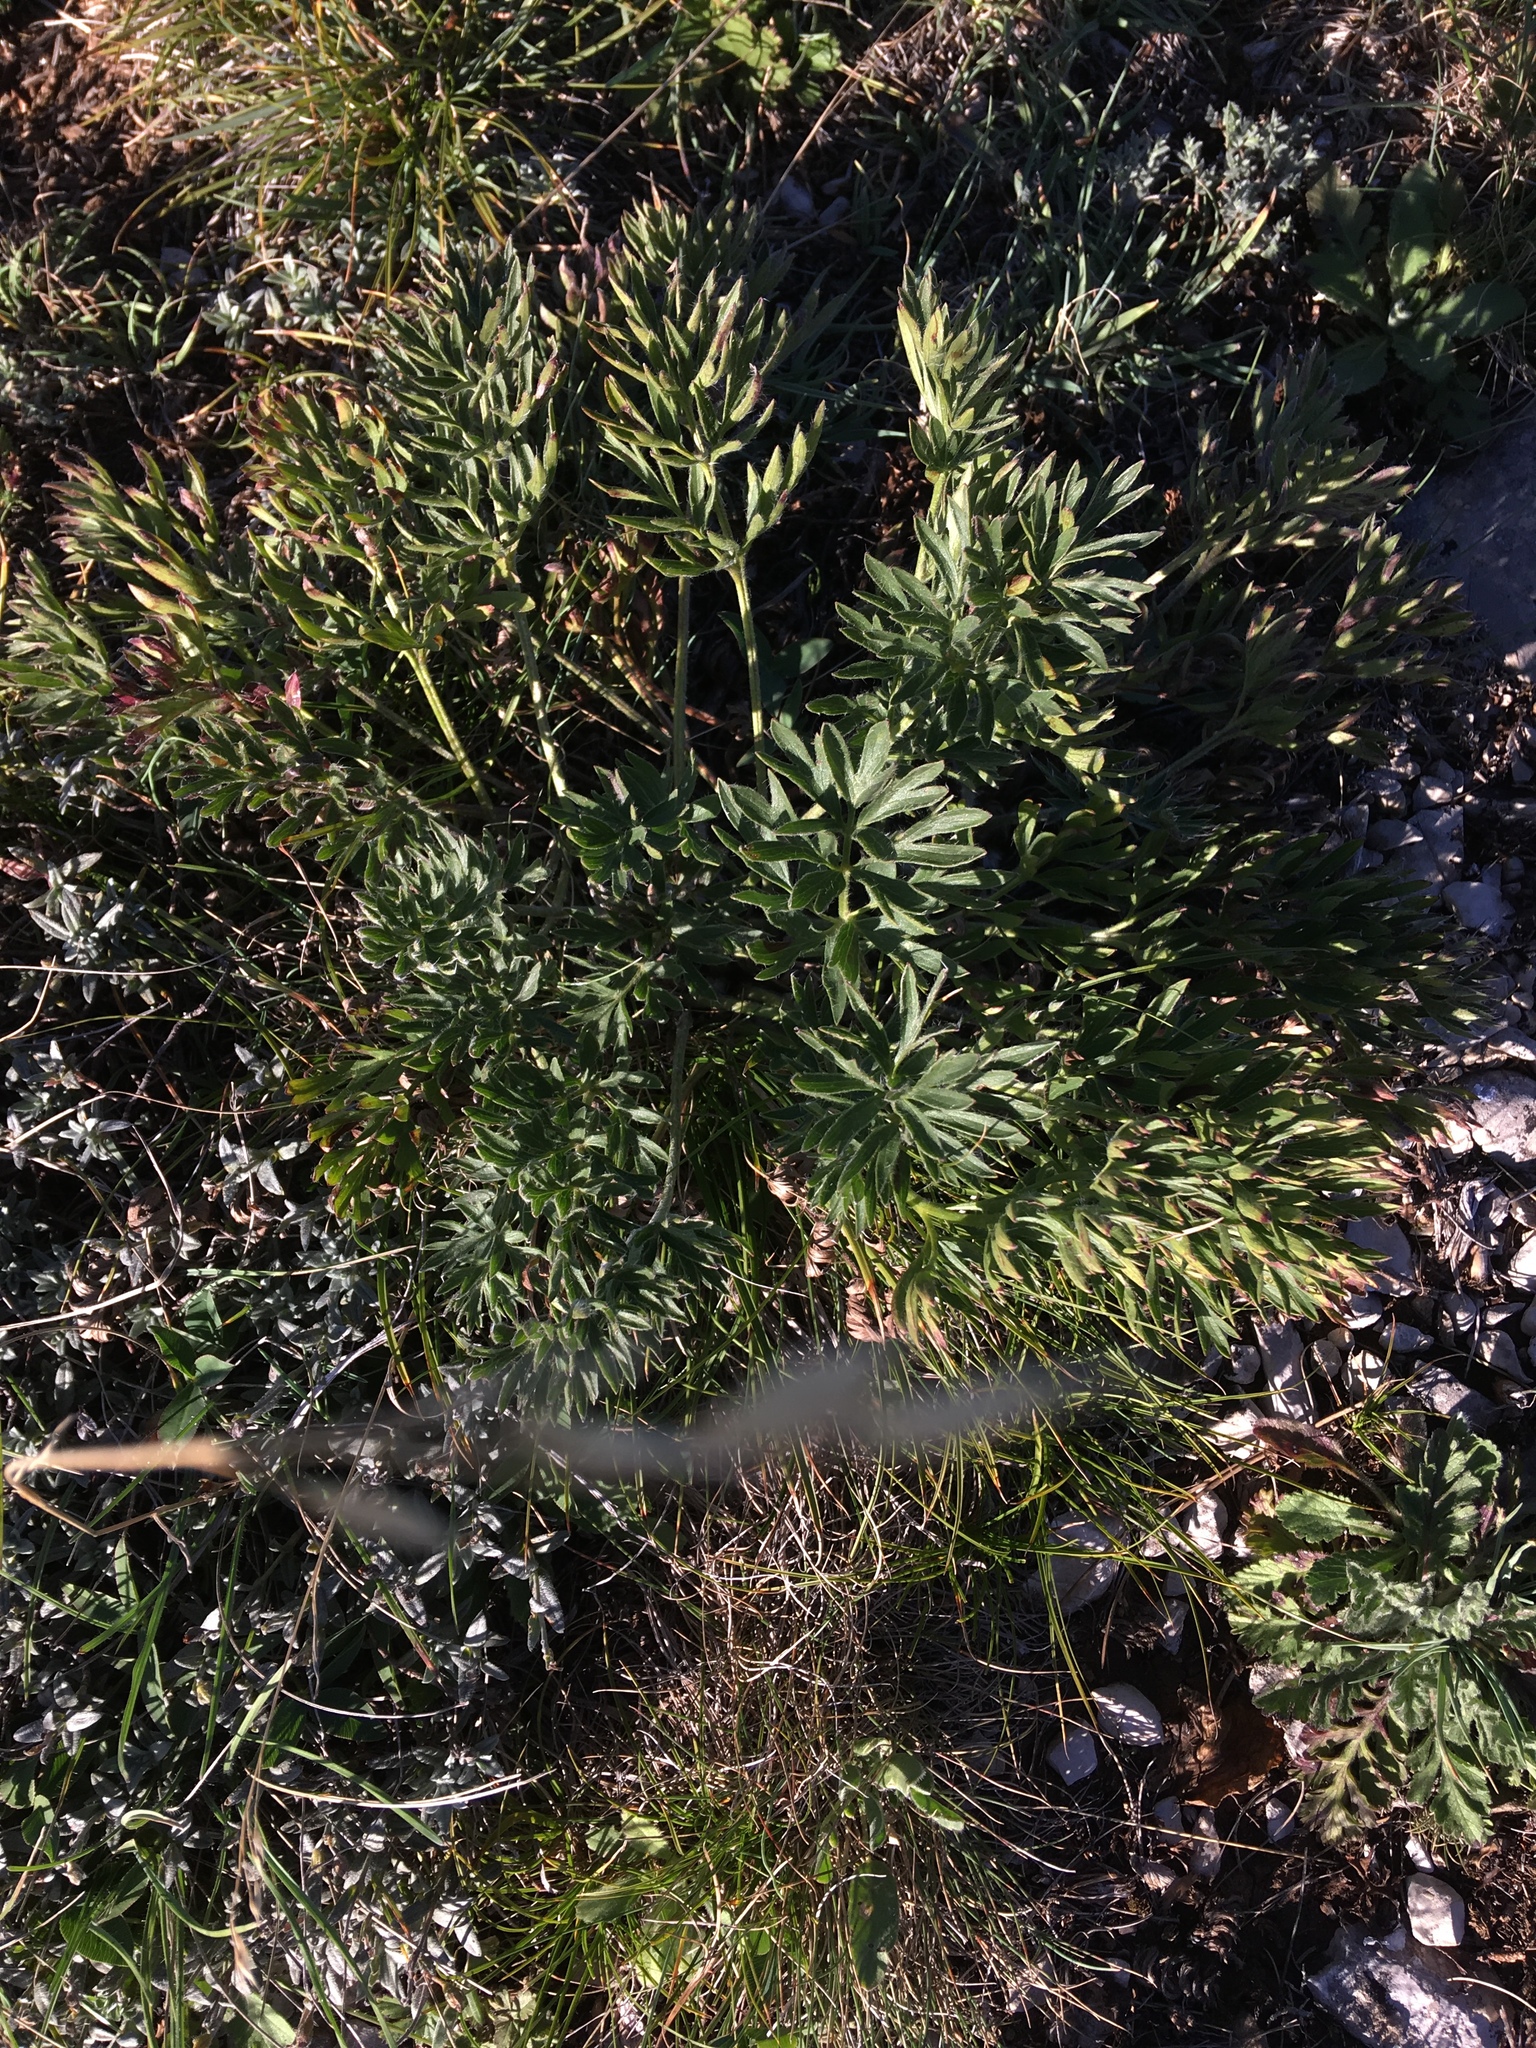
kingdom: Plantae
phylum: Tracheophyta
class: Magnoliopsida
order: Ranunculales
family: Ranunculaceae
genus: Pulsatilla
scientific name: Pulsatilla halleri
